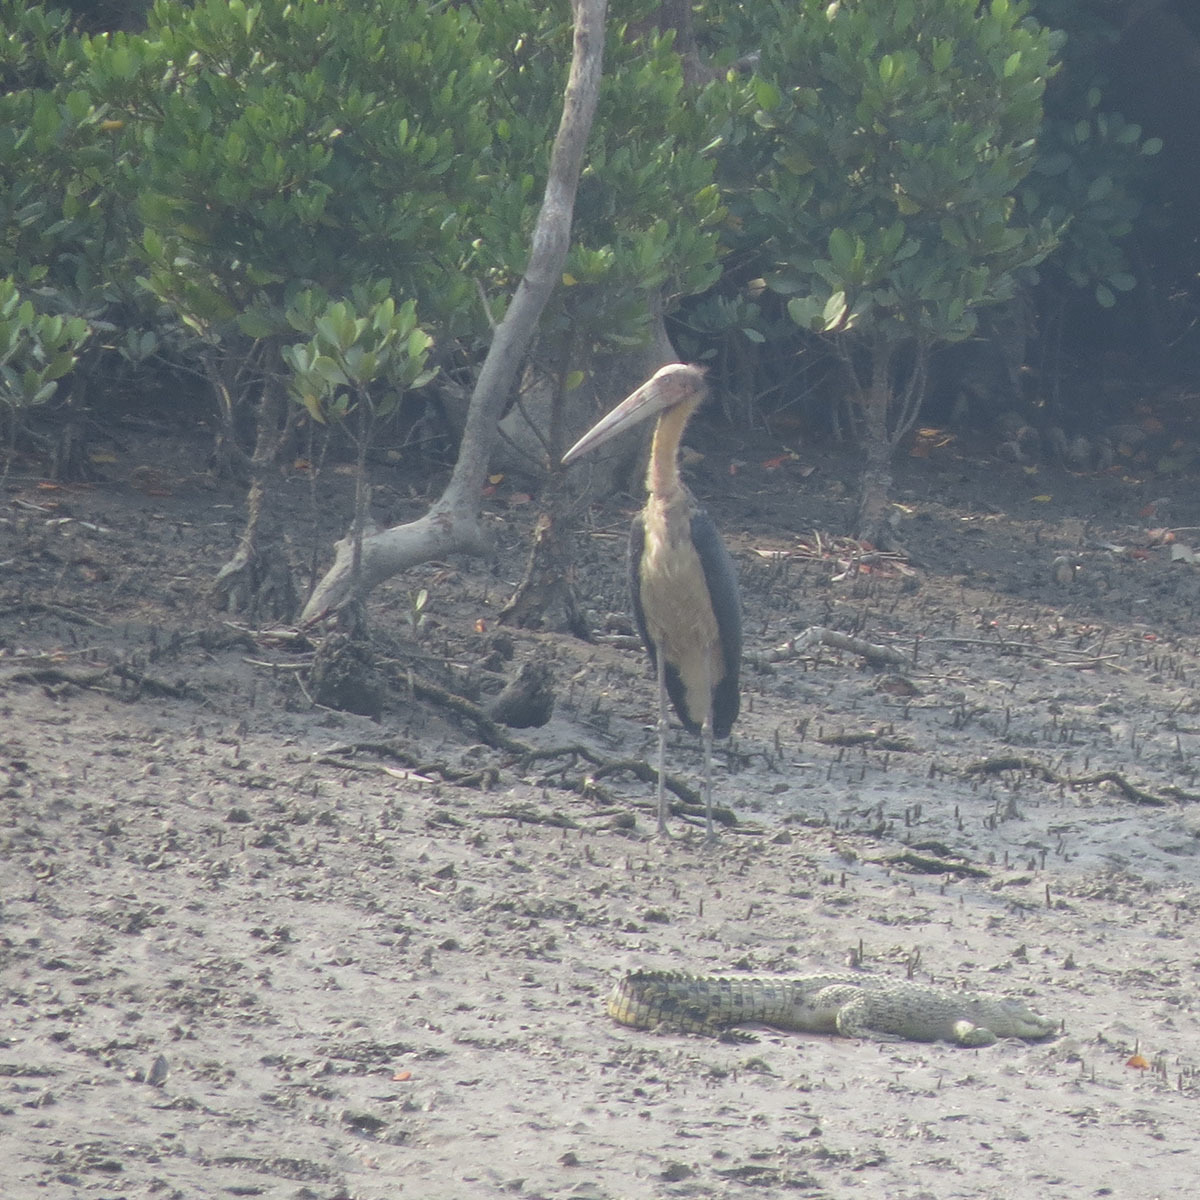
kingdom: Animalia
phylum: Chordata
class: Aves
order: Ciconiiformes
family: Ciconiidae
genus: Leptoptilos
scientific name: Leptoptilos javanicus
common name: Lesser adjutant
